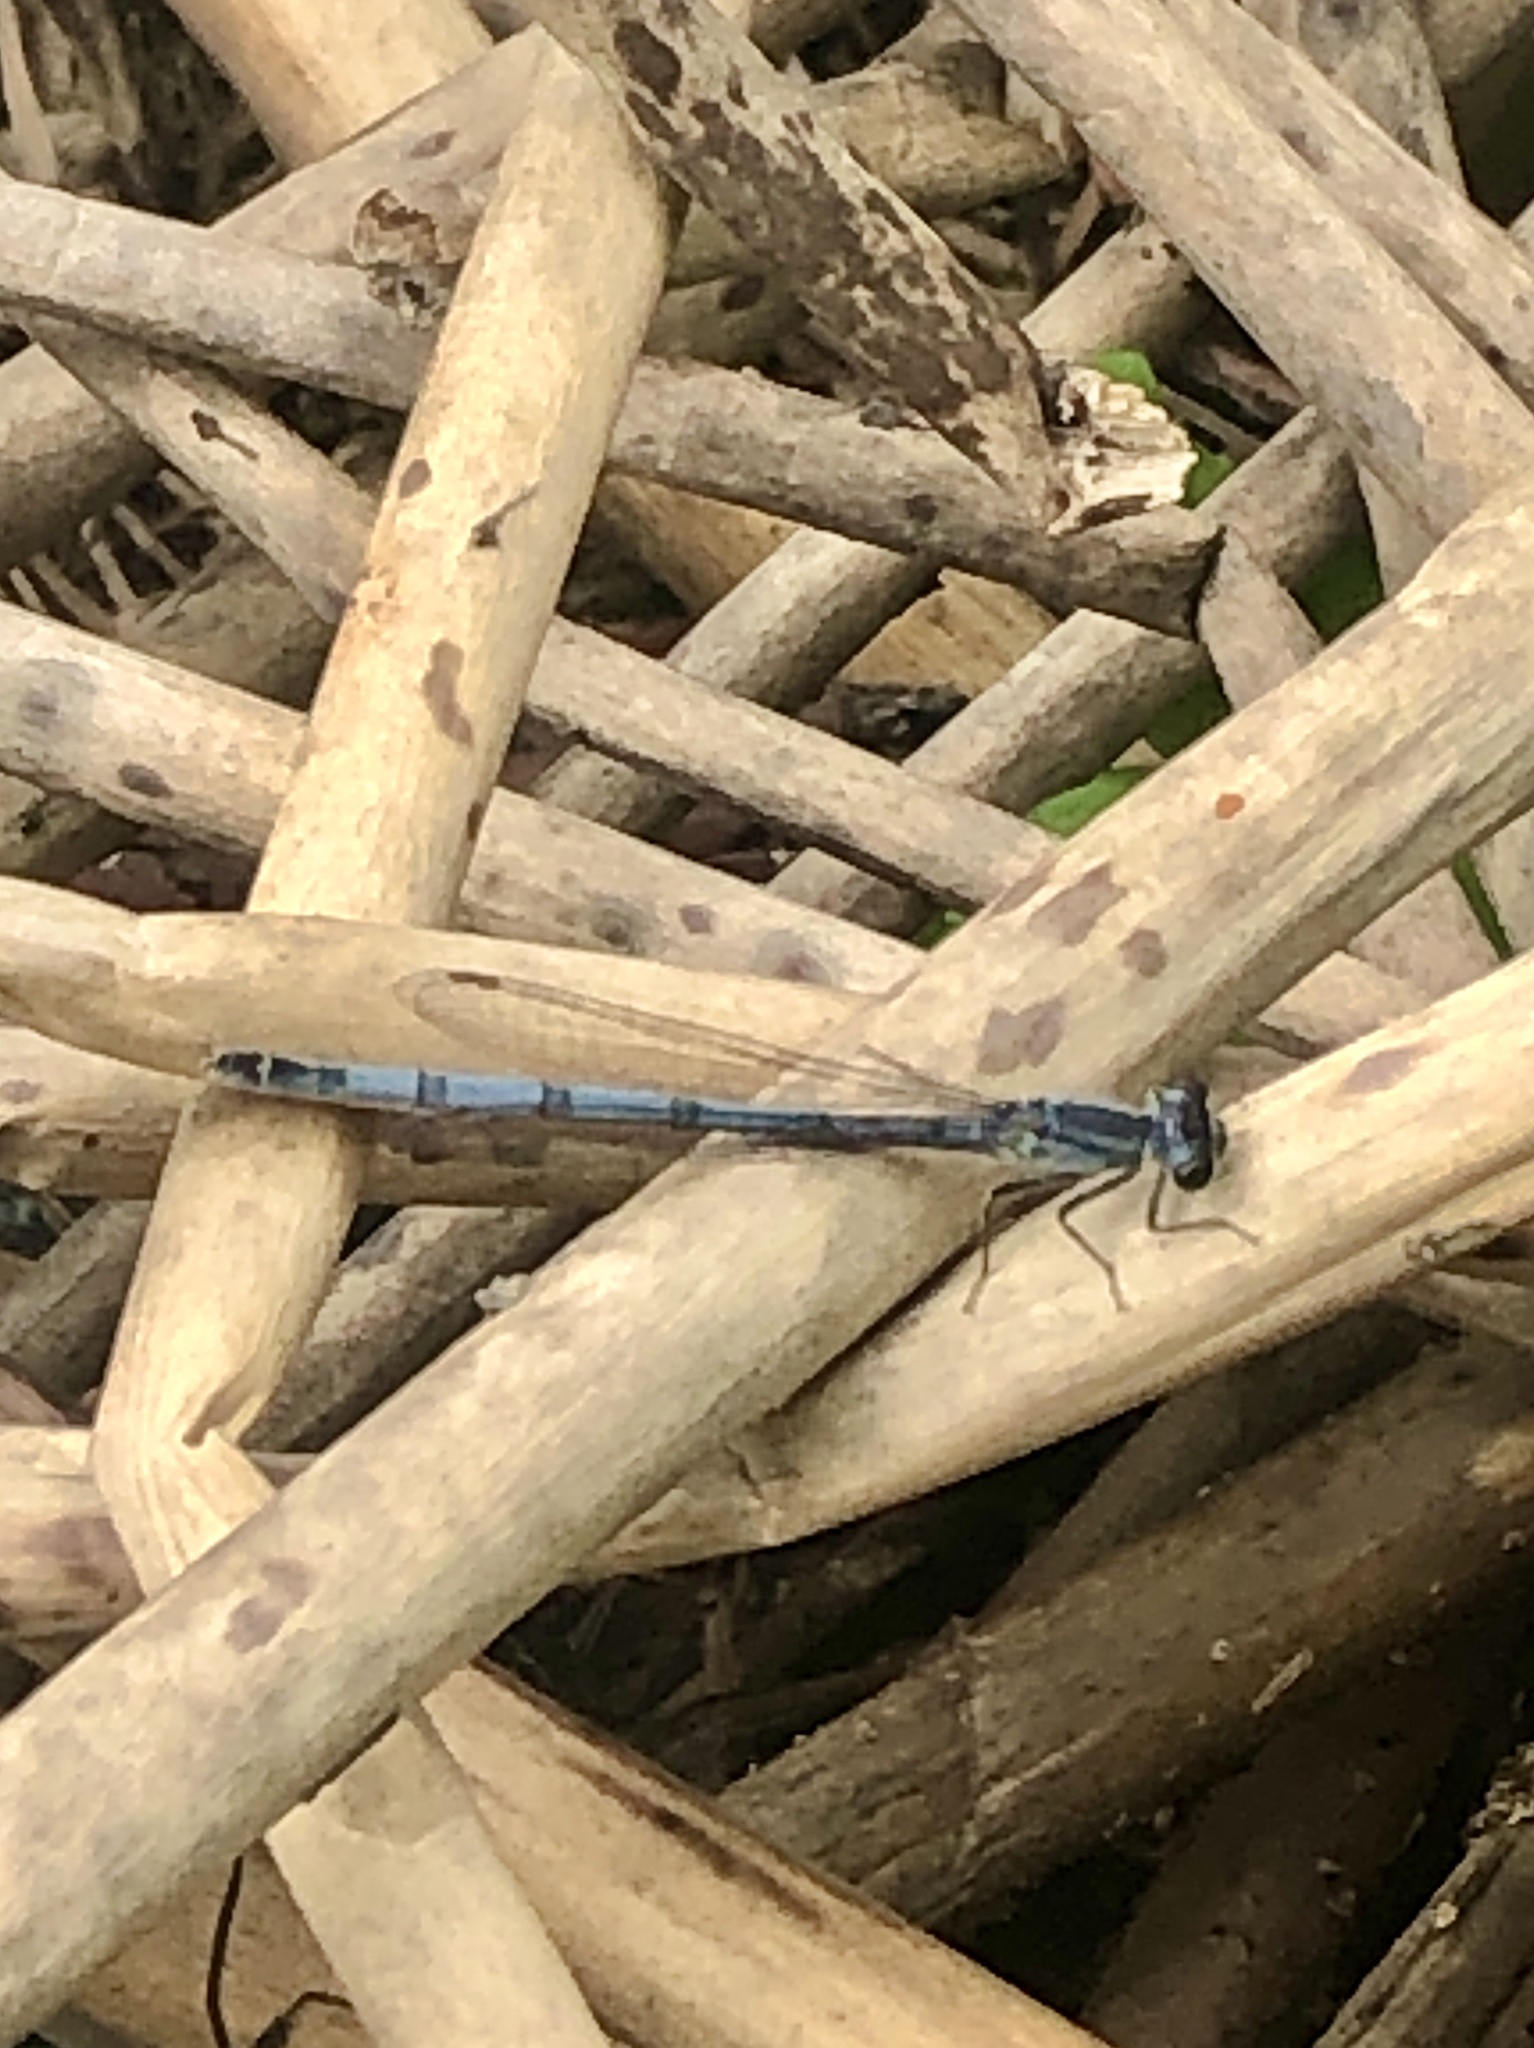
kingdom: Animalia
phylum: Arthropoda
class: Insecta
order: Odonata
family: Coenagrionidae
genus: Ischnura
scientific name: Ischnura verticalis
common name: Eastern forktail
